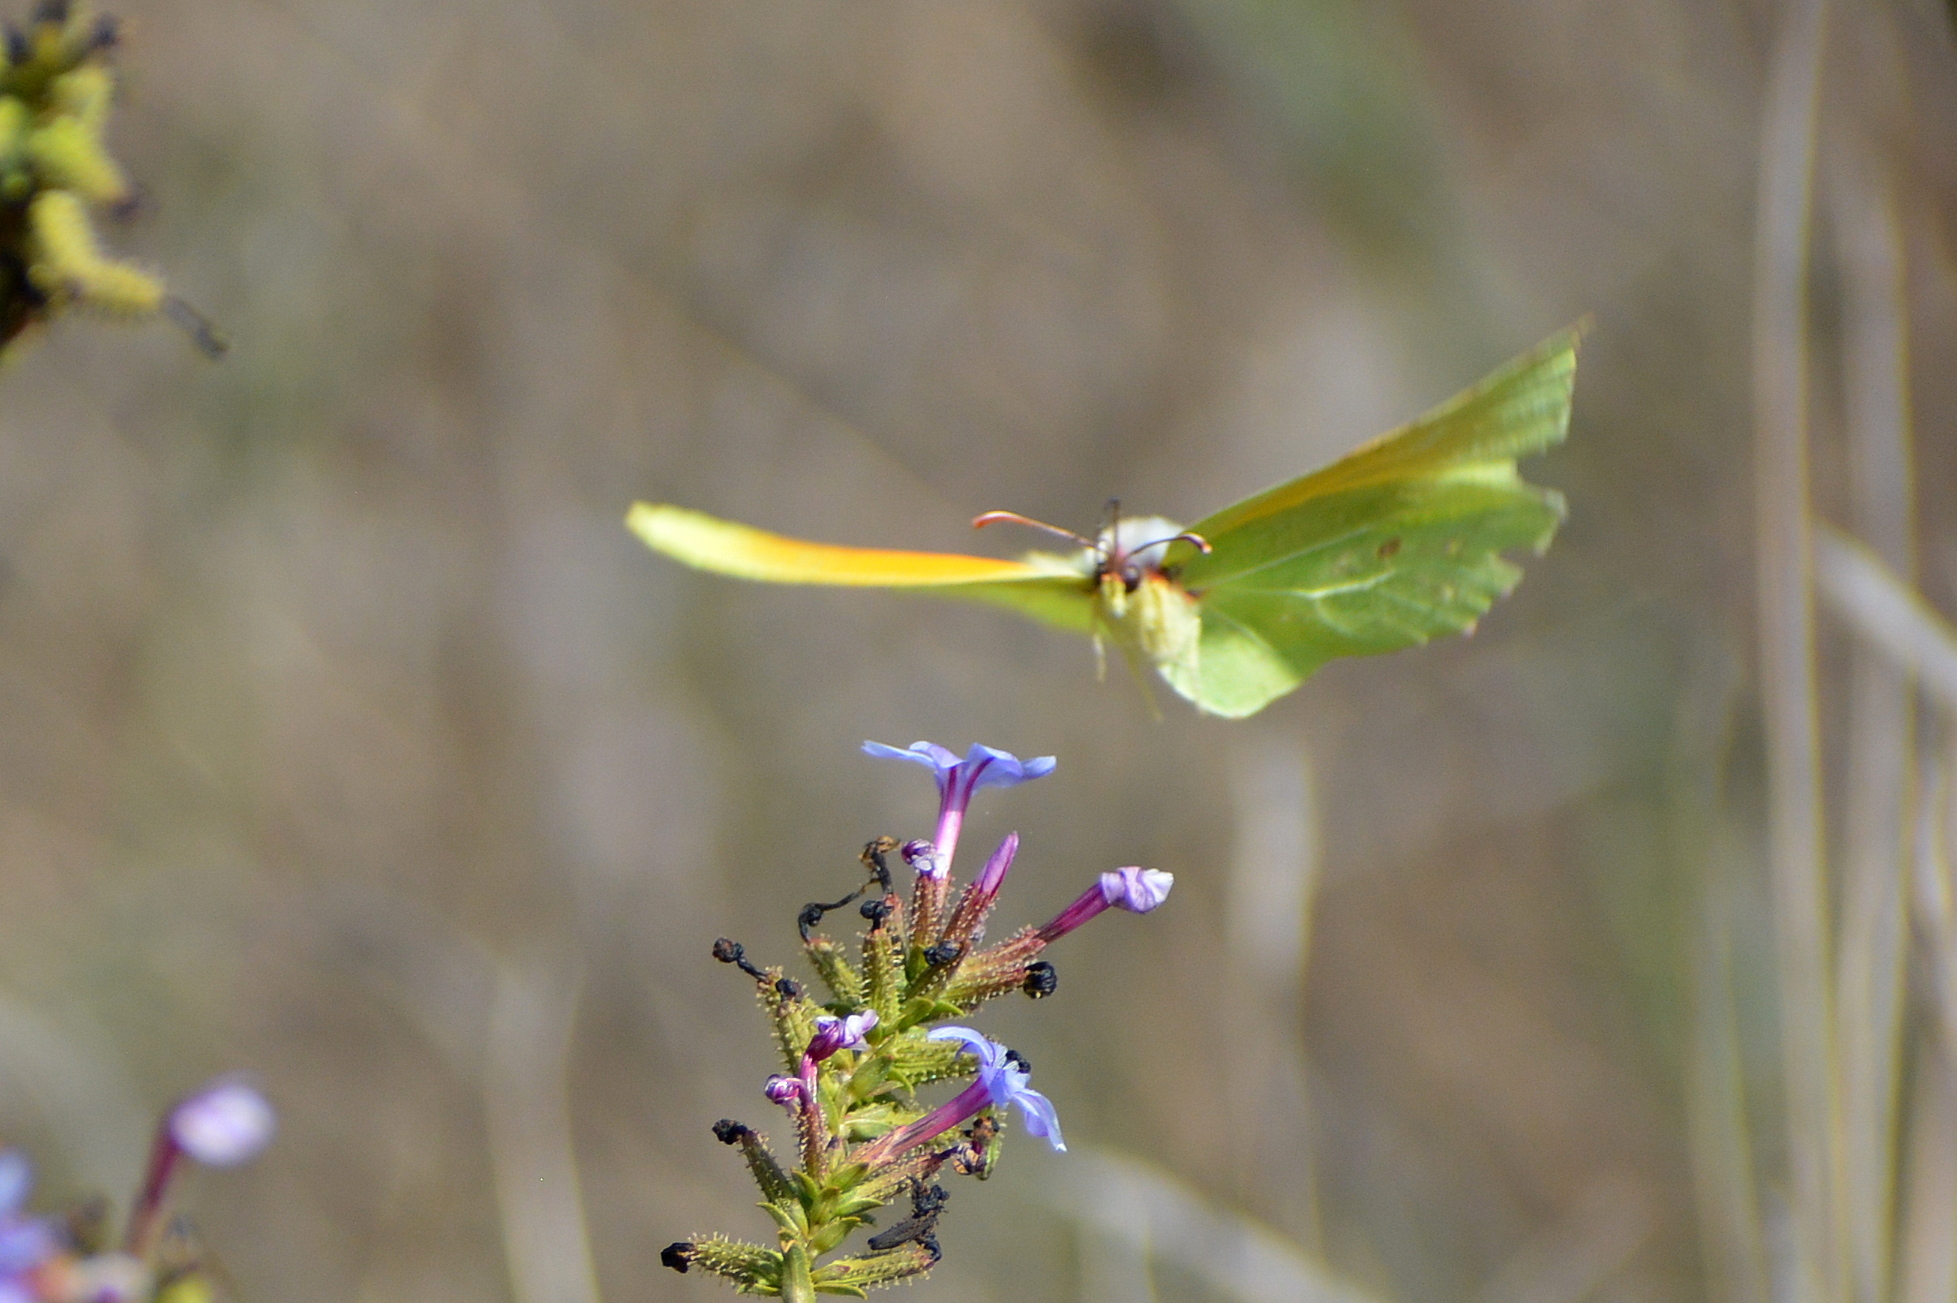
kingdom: Animalia
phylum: Arthropoda
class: Insecta
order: Lepidoptera
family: Pieridae
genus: Gonepteryx
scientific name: Gonepteryx cleopatra
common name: Cleopatra
